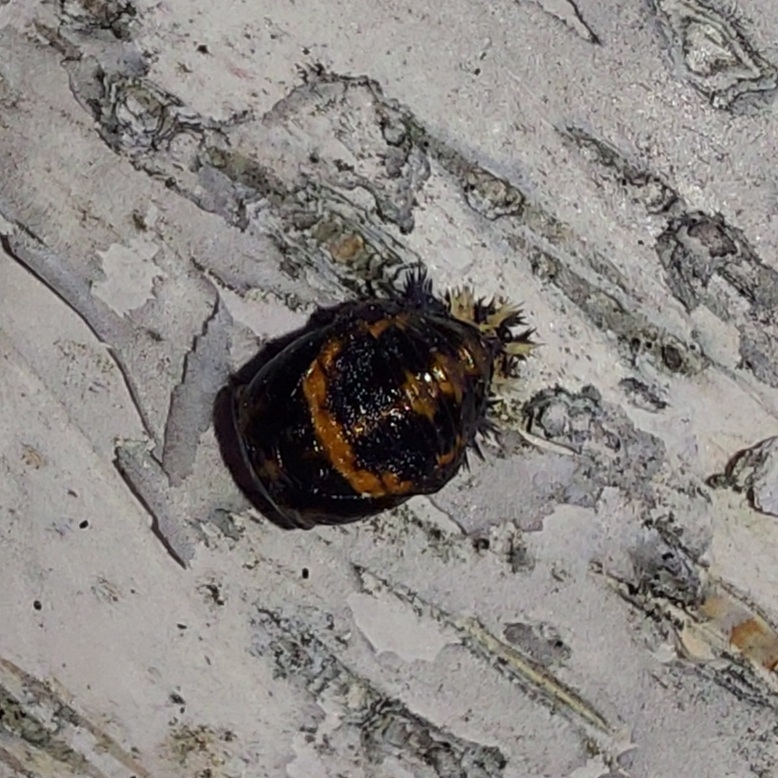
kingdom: Animalia
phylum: Arthropoda
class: Insecta
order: Coleoptera
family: Coccinellidae
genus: Harmonia
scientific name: Harmonia axyridis
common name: Harlequin ladybird
